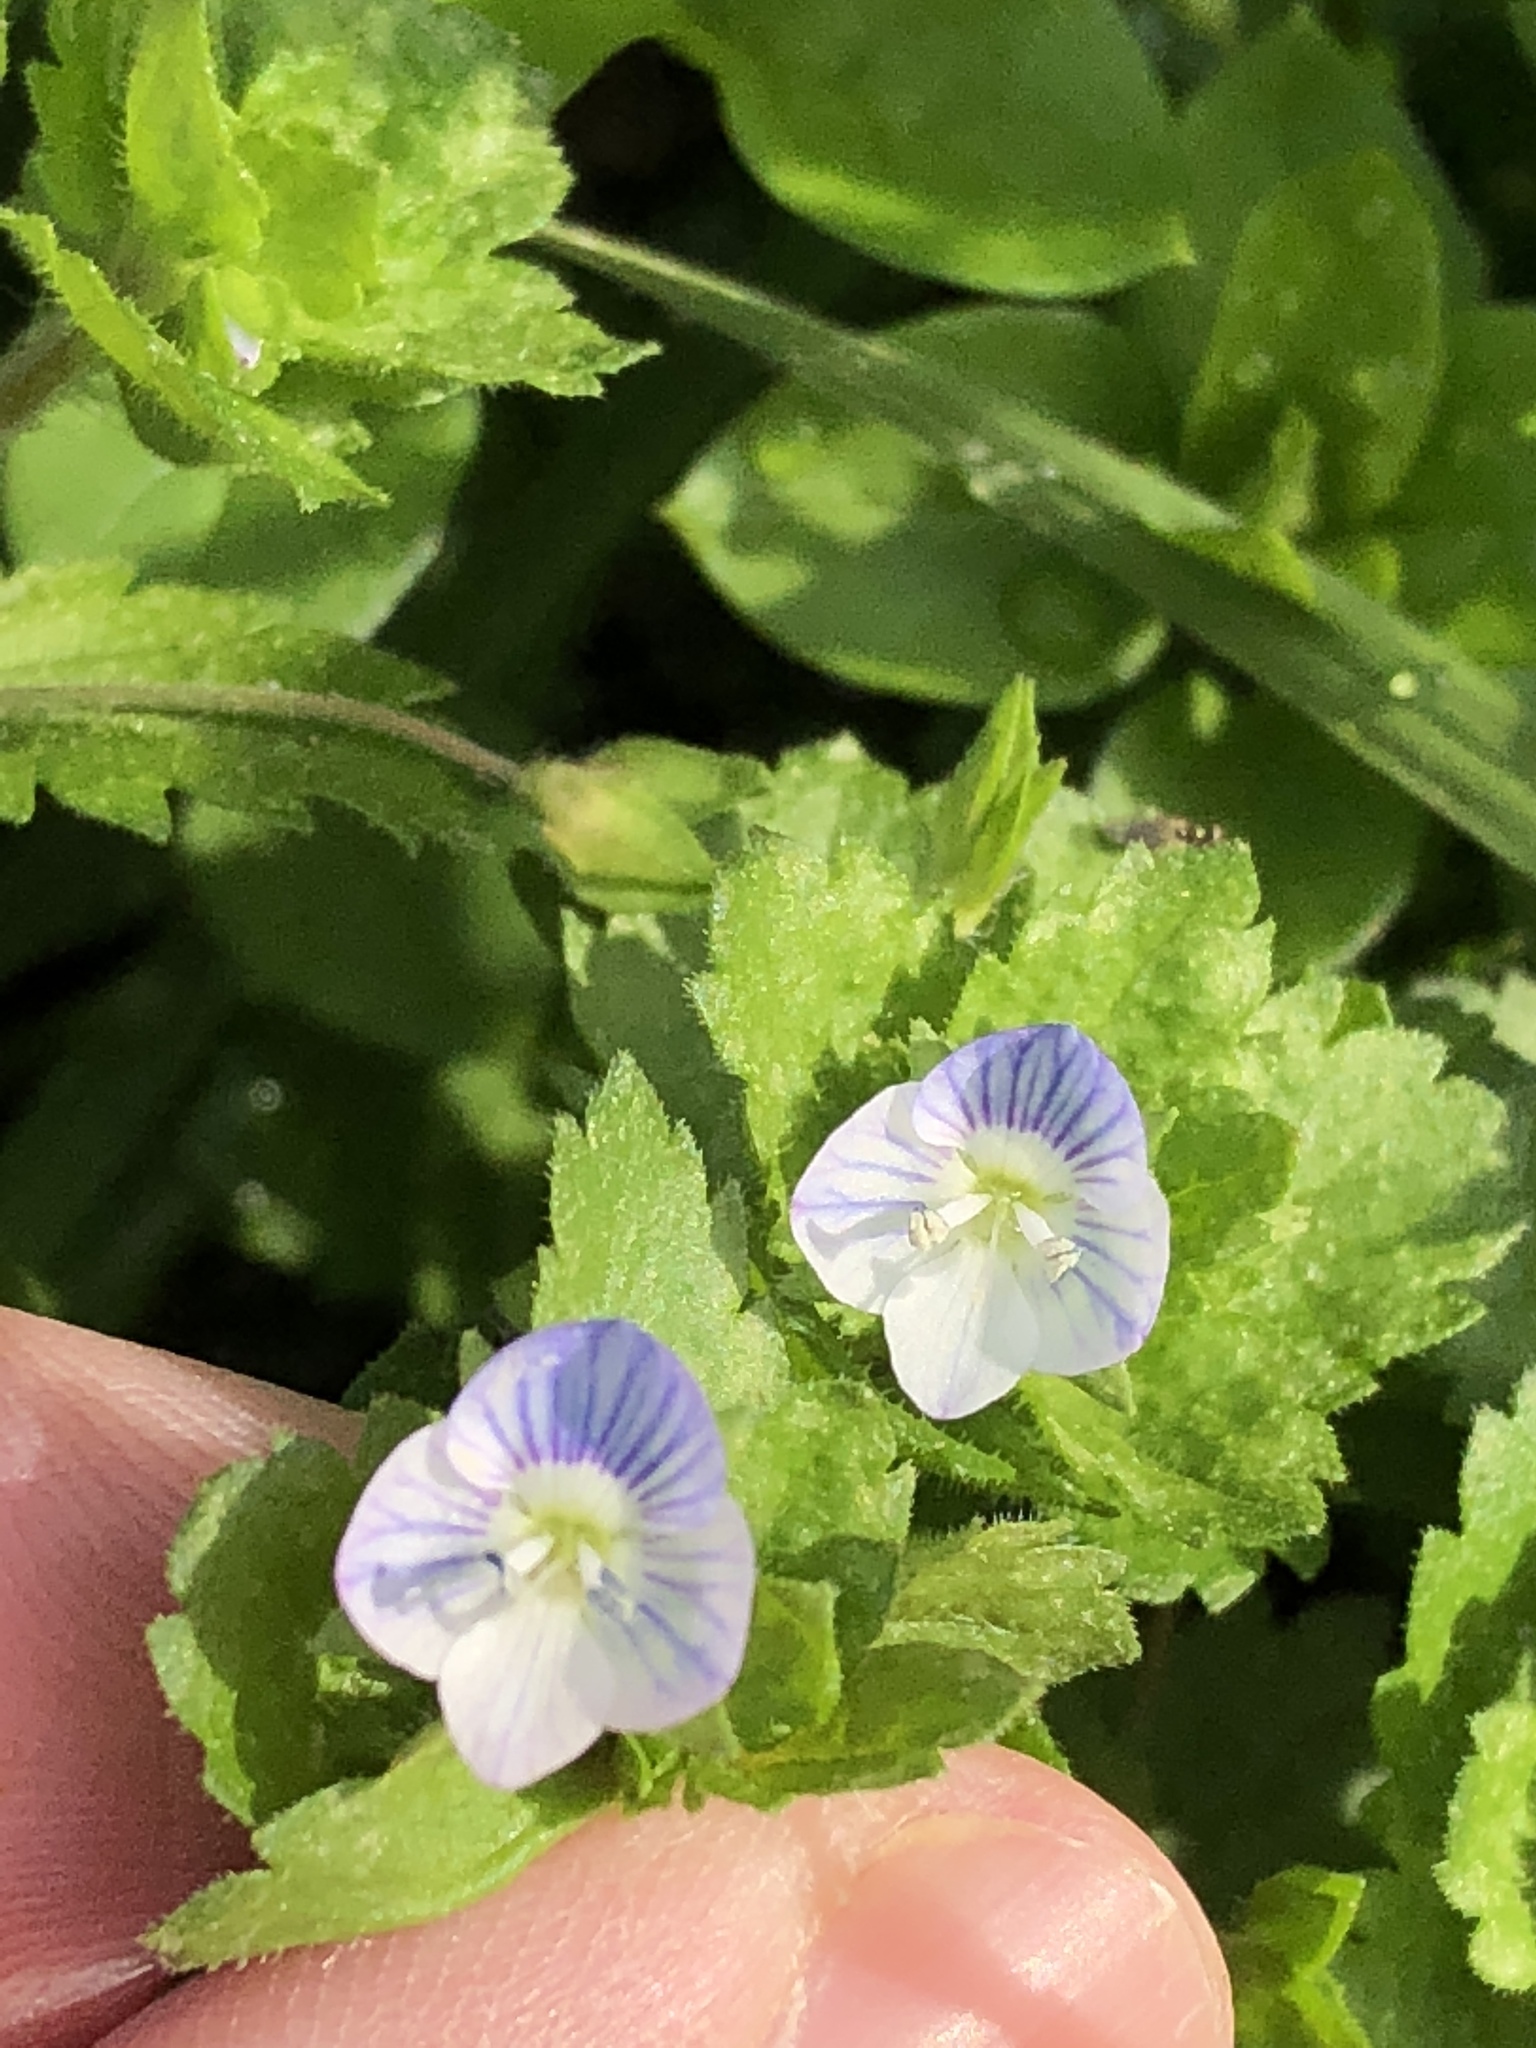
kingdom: Plantae
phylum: Tracheophyta
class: Magnoliopsida
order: Lamiales
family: Plantaginaceae
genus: Veronica
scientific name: Veronica persica
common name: Common field-speedwell
